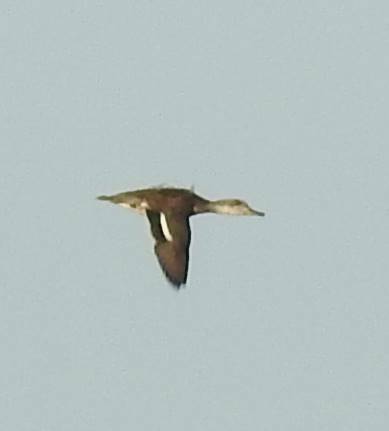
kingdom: Animalia
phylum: Chordata
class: Aves
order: Anseriformes
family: Anatidae
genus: Anas
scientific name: Anas crecca
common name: Eurasian teal
